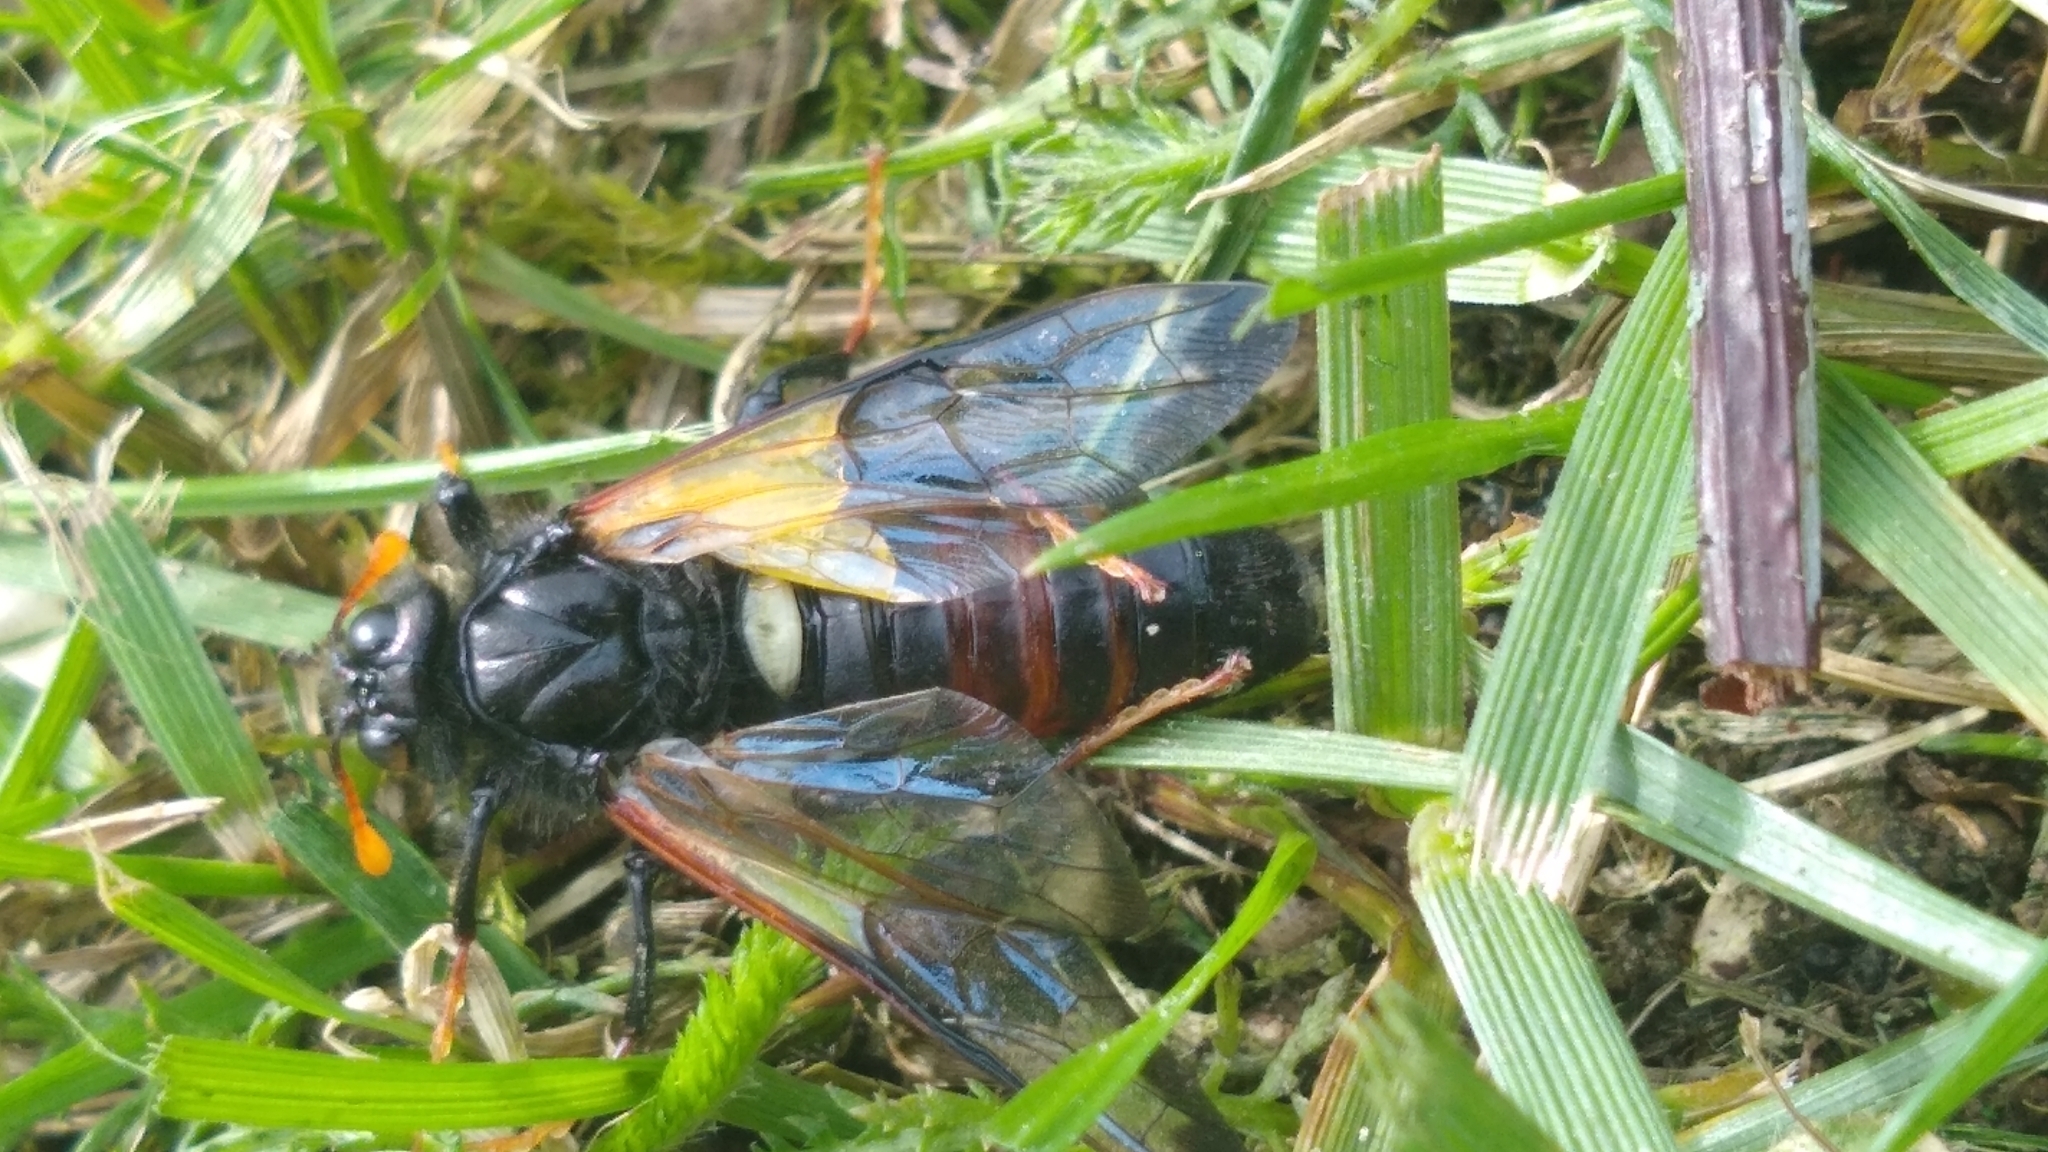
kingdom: Animalia
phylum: Arthropoda
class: Insecta
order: Hymenoptera
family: Cimbicidae
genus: Cimbex
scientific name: Cimbex femoratus
